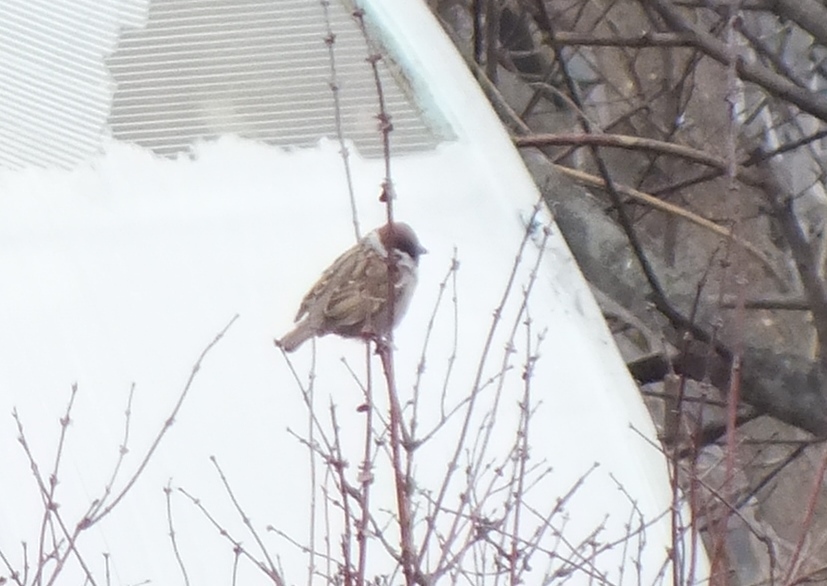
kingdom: Animalia
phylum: Chordata
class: Aves
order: Passeriformes
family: Passeridae
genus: Passer
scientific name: Passer montanus
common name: Eurasian tree sparrow
